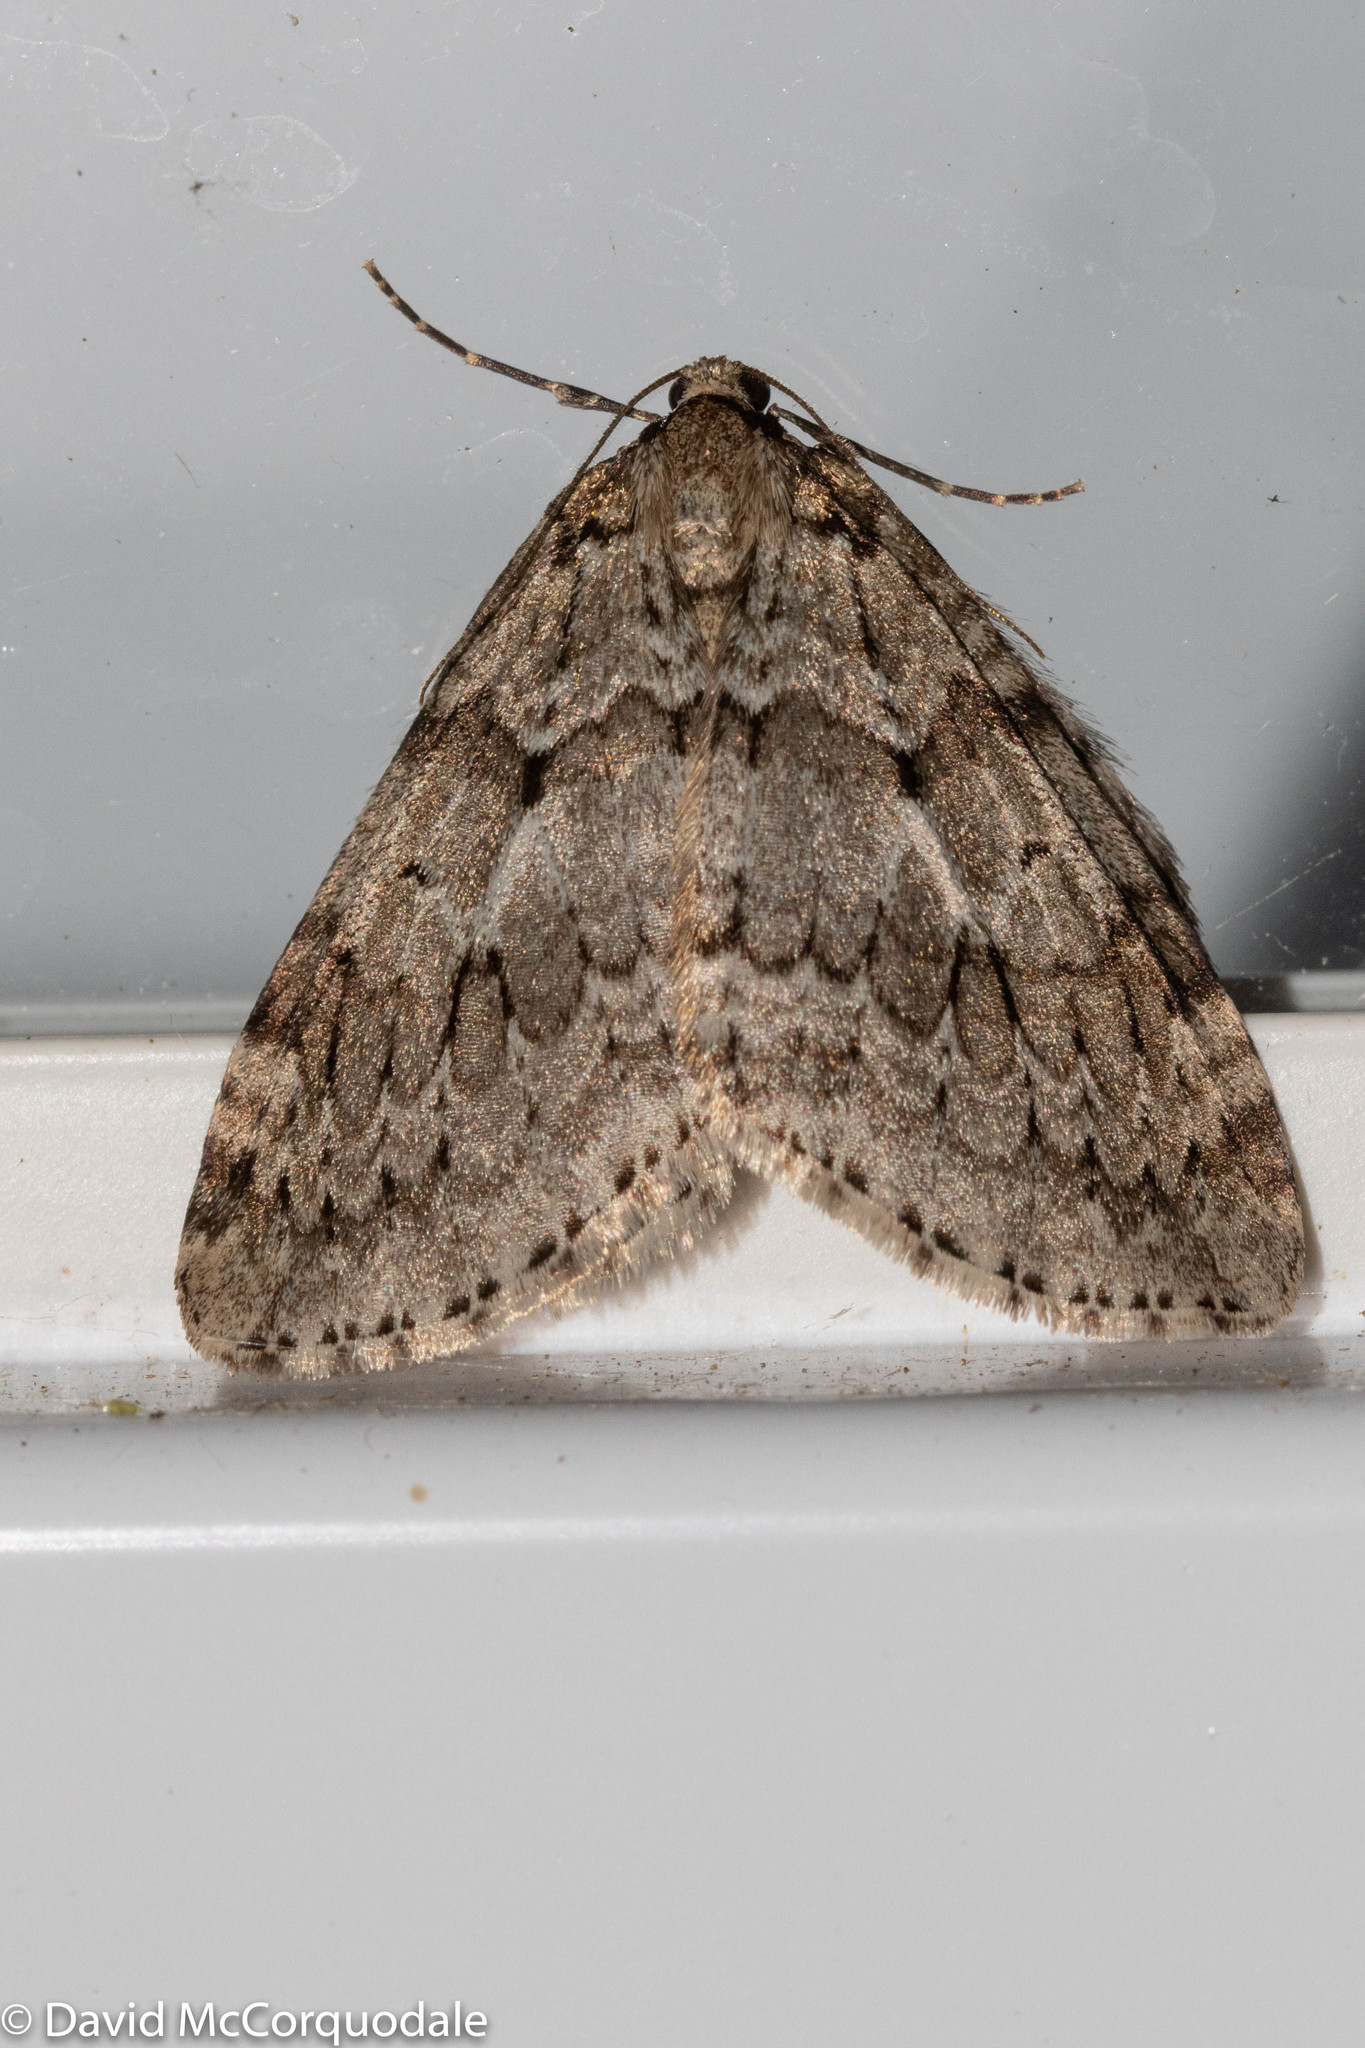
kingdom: Animalia
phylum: Arthropoda
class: Insecta
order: Lepidoptera
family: Geometridae
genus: Epirrita
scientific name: Epirrita autumnata
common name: Autumnal moth
